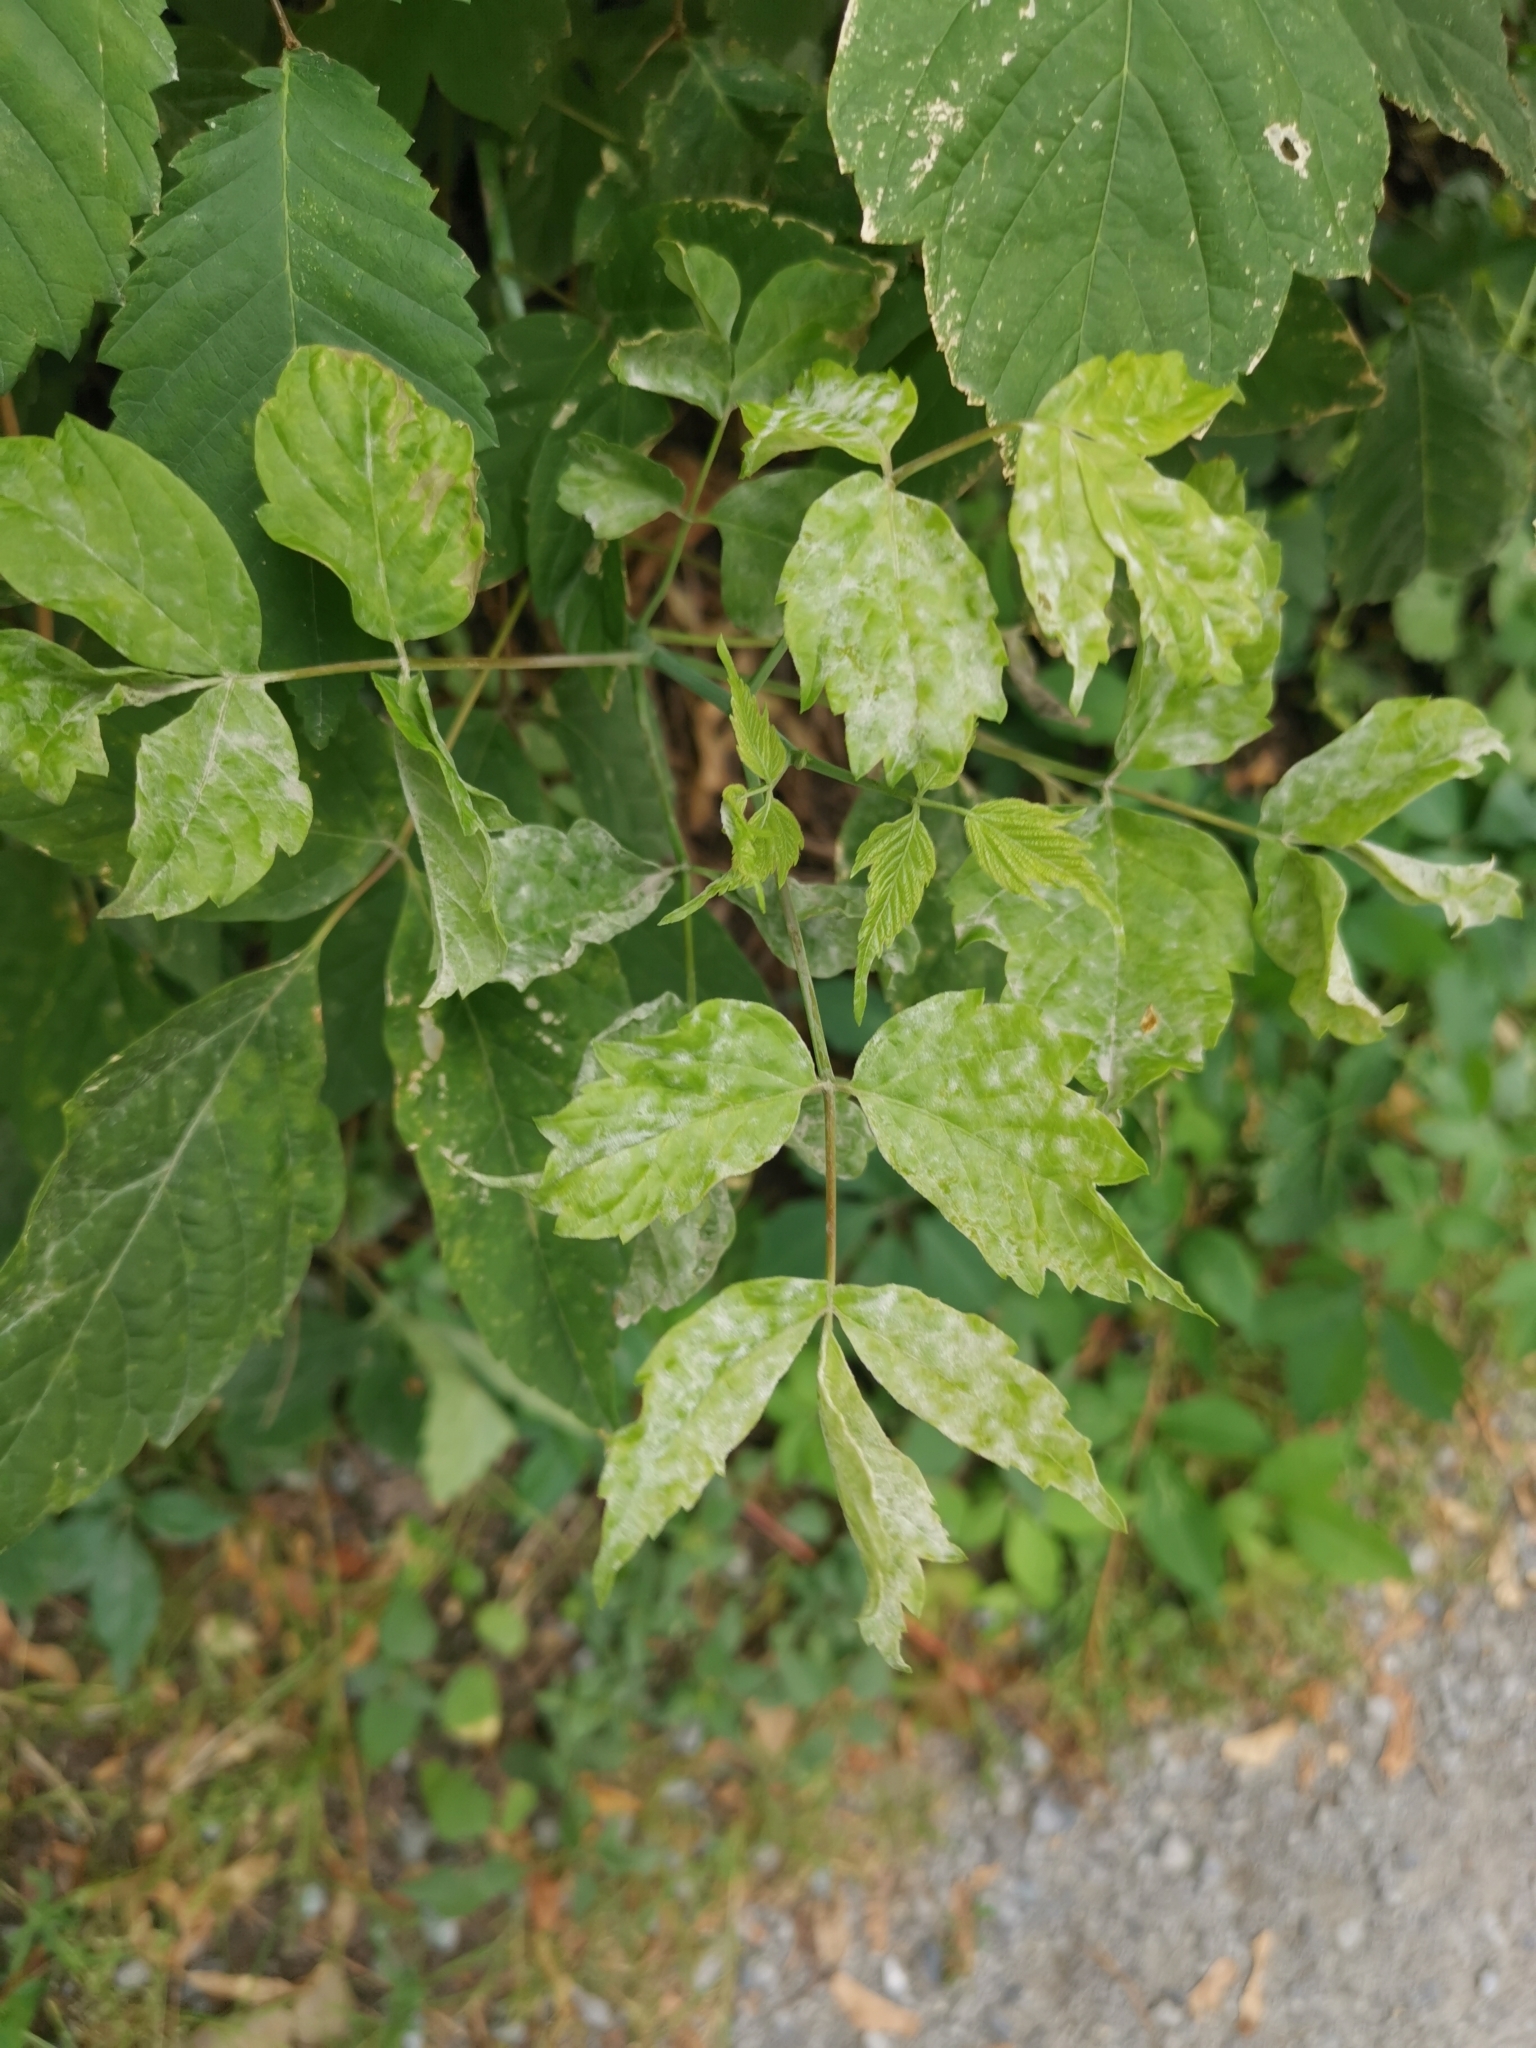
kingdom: Plantae
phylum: Tracheophyta
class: Magnoliopsida
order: Sapindales
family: Sapindaceae
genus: Acer
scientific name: Acer negundo
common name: Ashleaf maple
